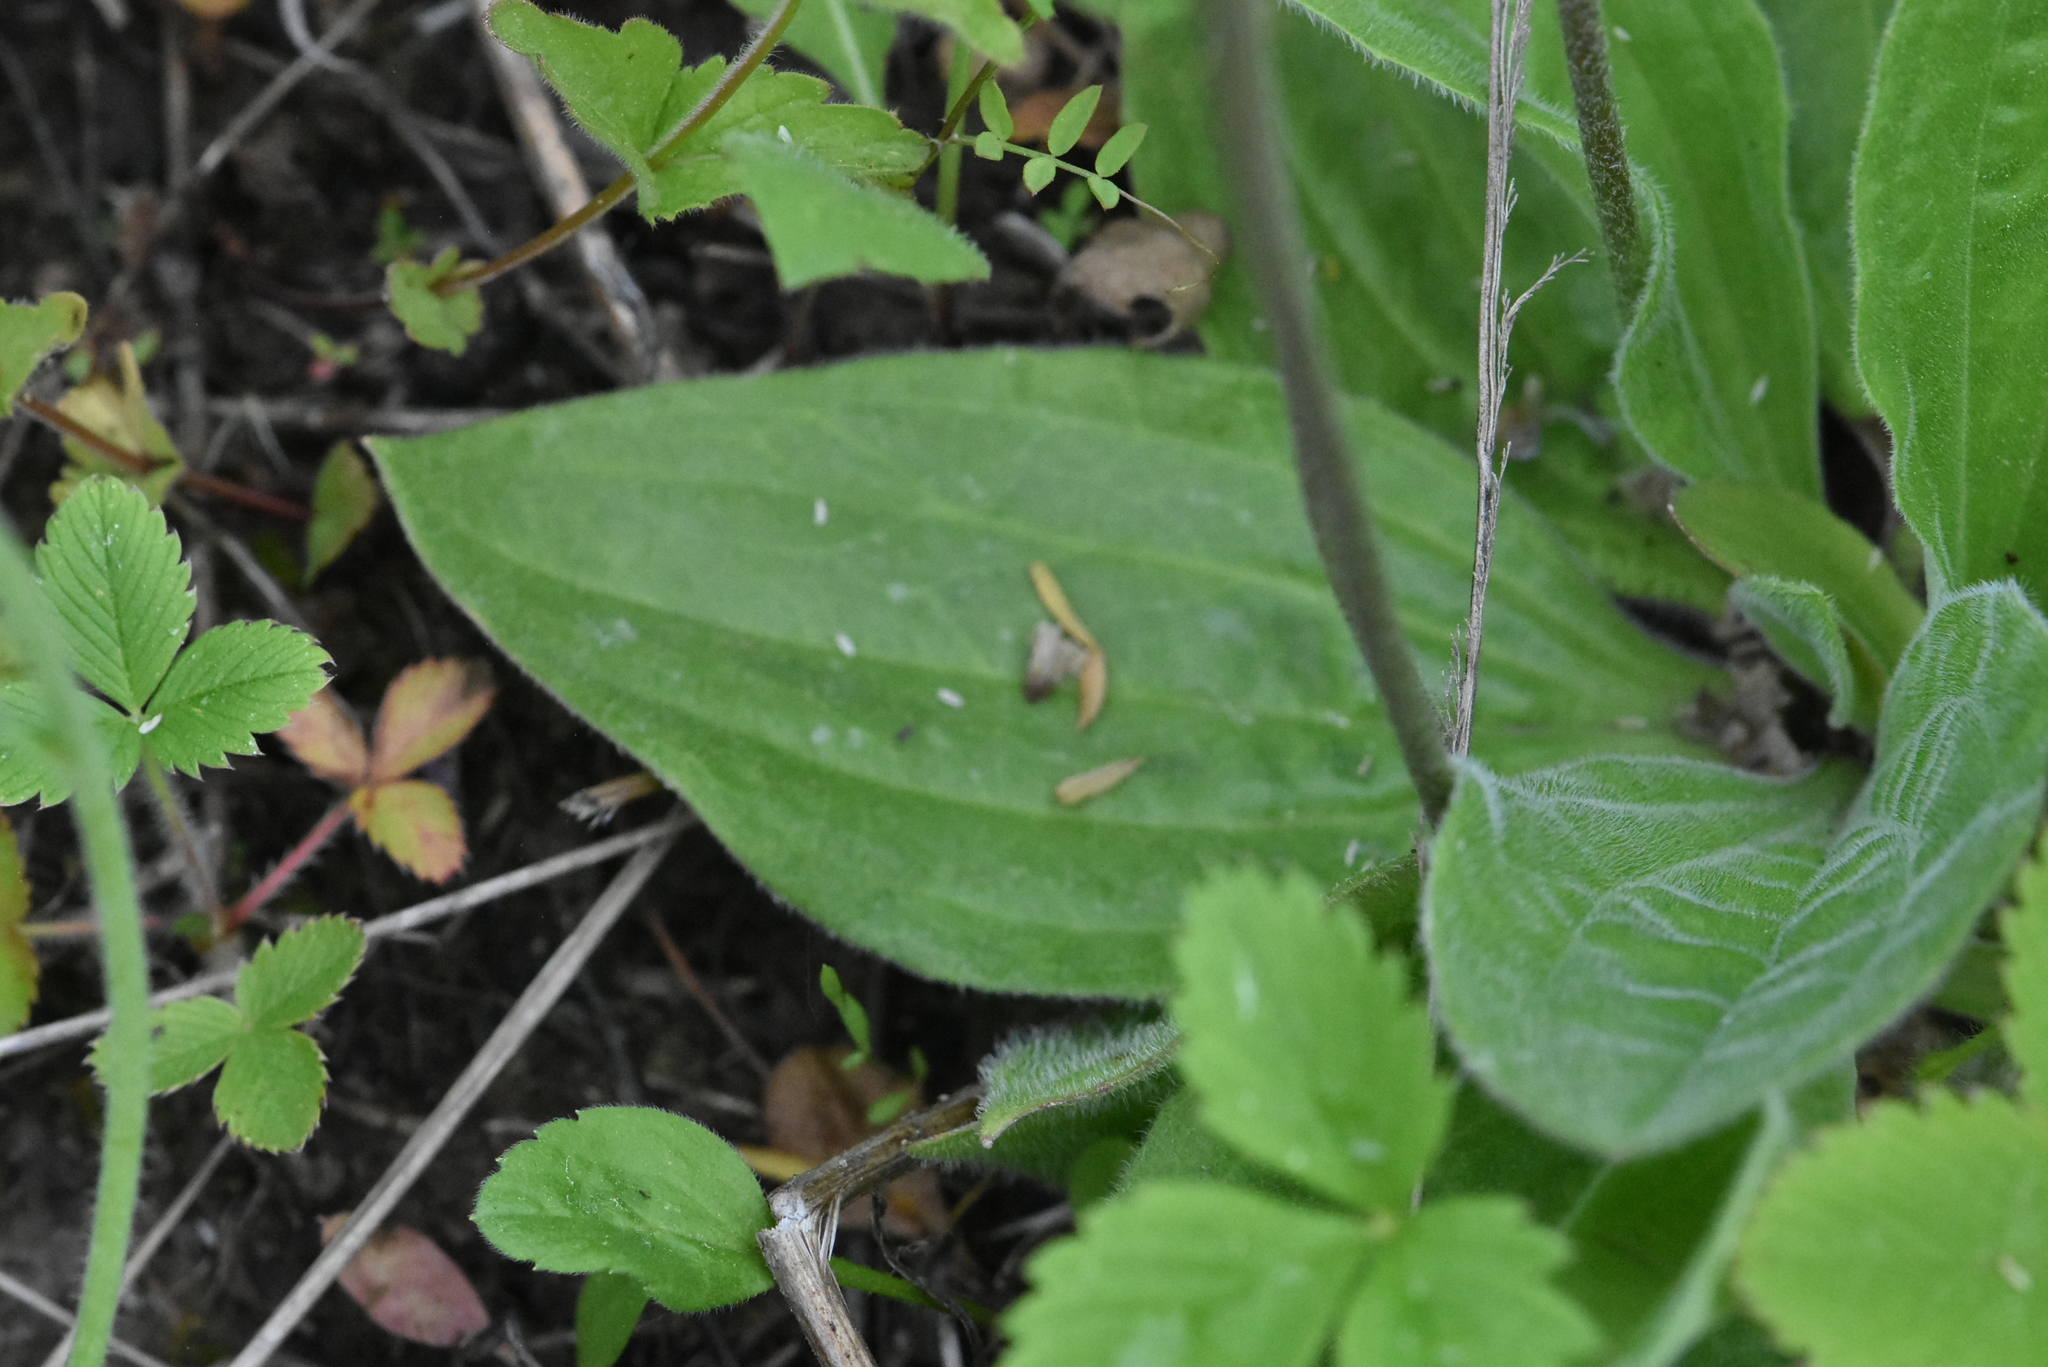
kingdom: Plantae
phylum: Tracheophyta
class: Magnoliopsida
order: Lamiales
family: Plantaginaceae
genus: Plantago
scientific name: Plantago media
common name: Hoary plantain
